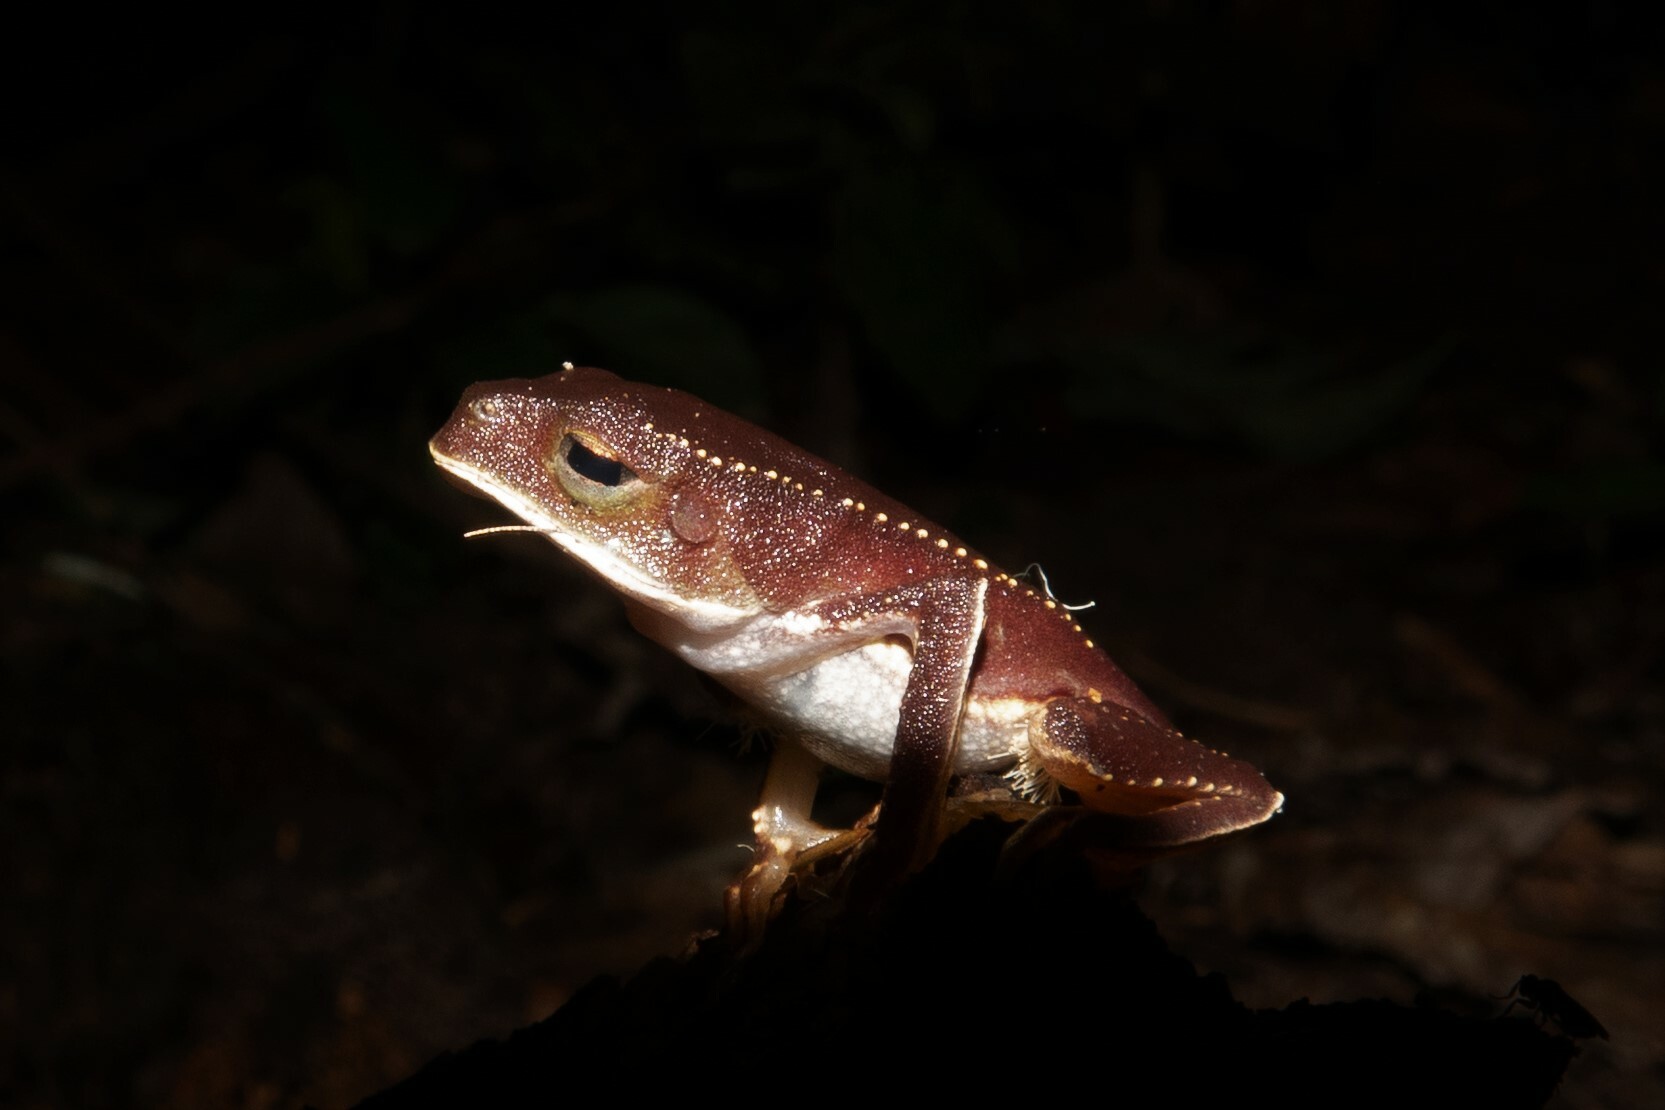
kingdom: Animalia
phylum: Chordata
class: Amphibia
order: Anura
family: Phyllomedusidae
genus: Phyllomedusa
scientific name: Phyllomedusa vaillantii
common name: White-lined leaf frog
